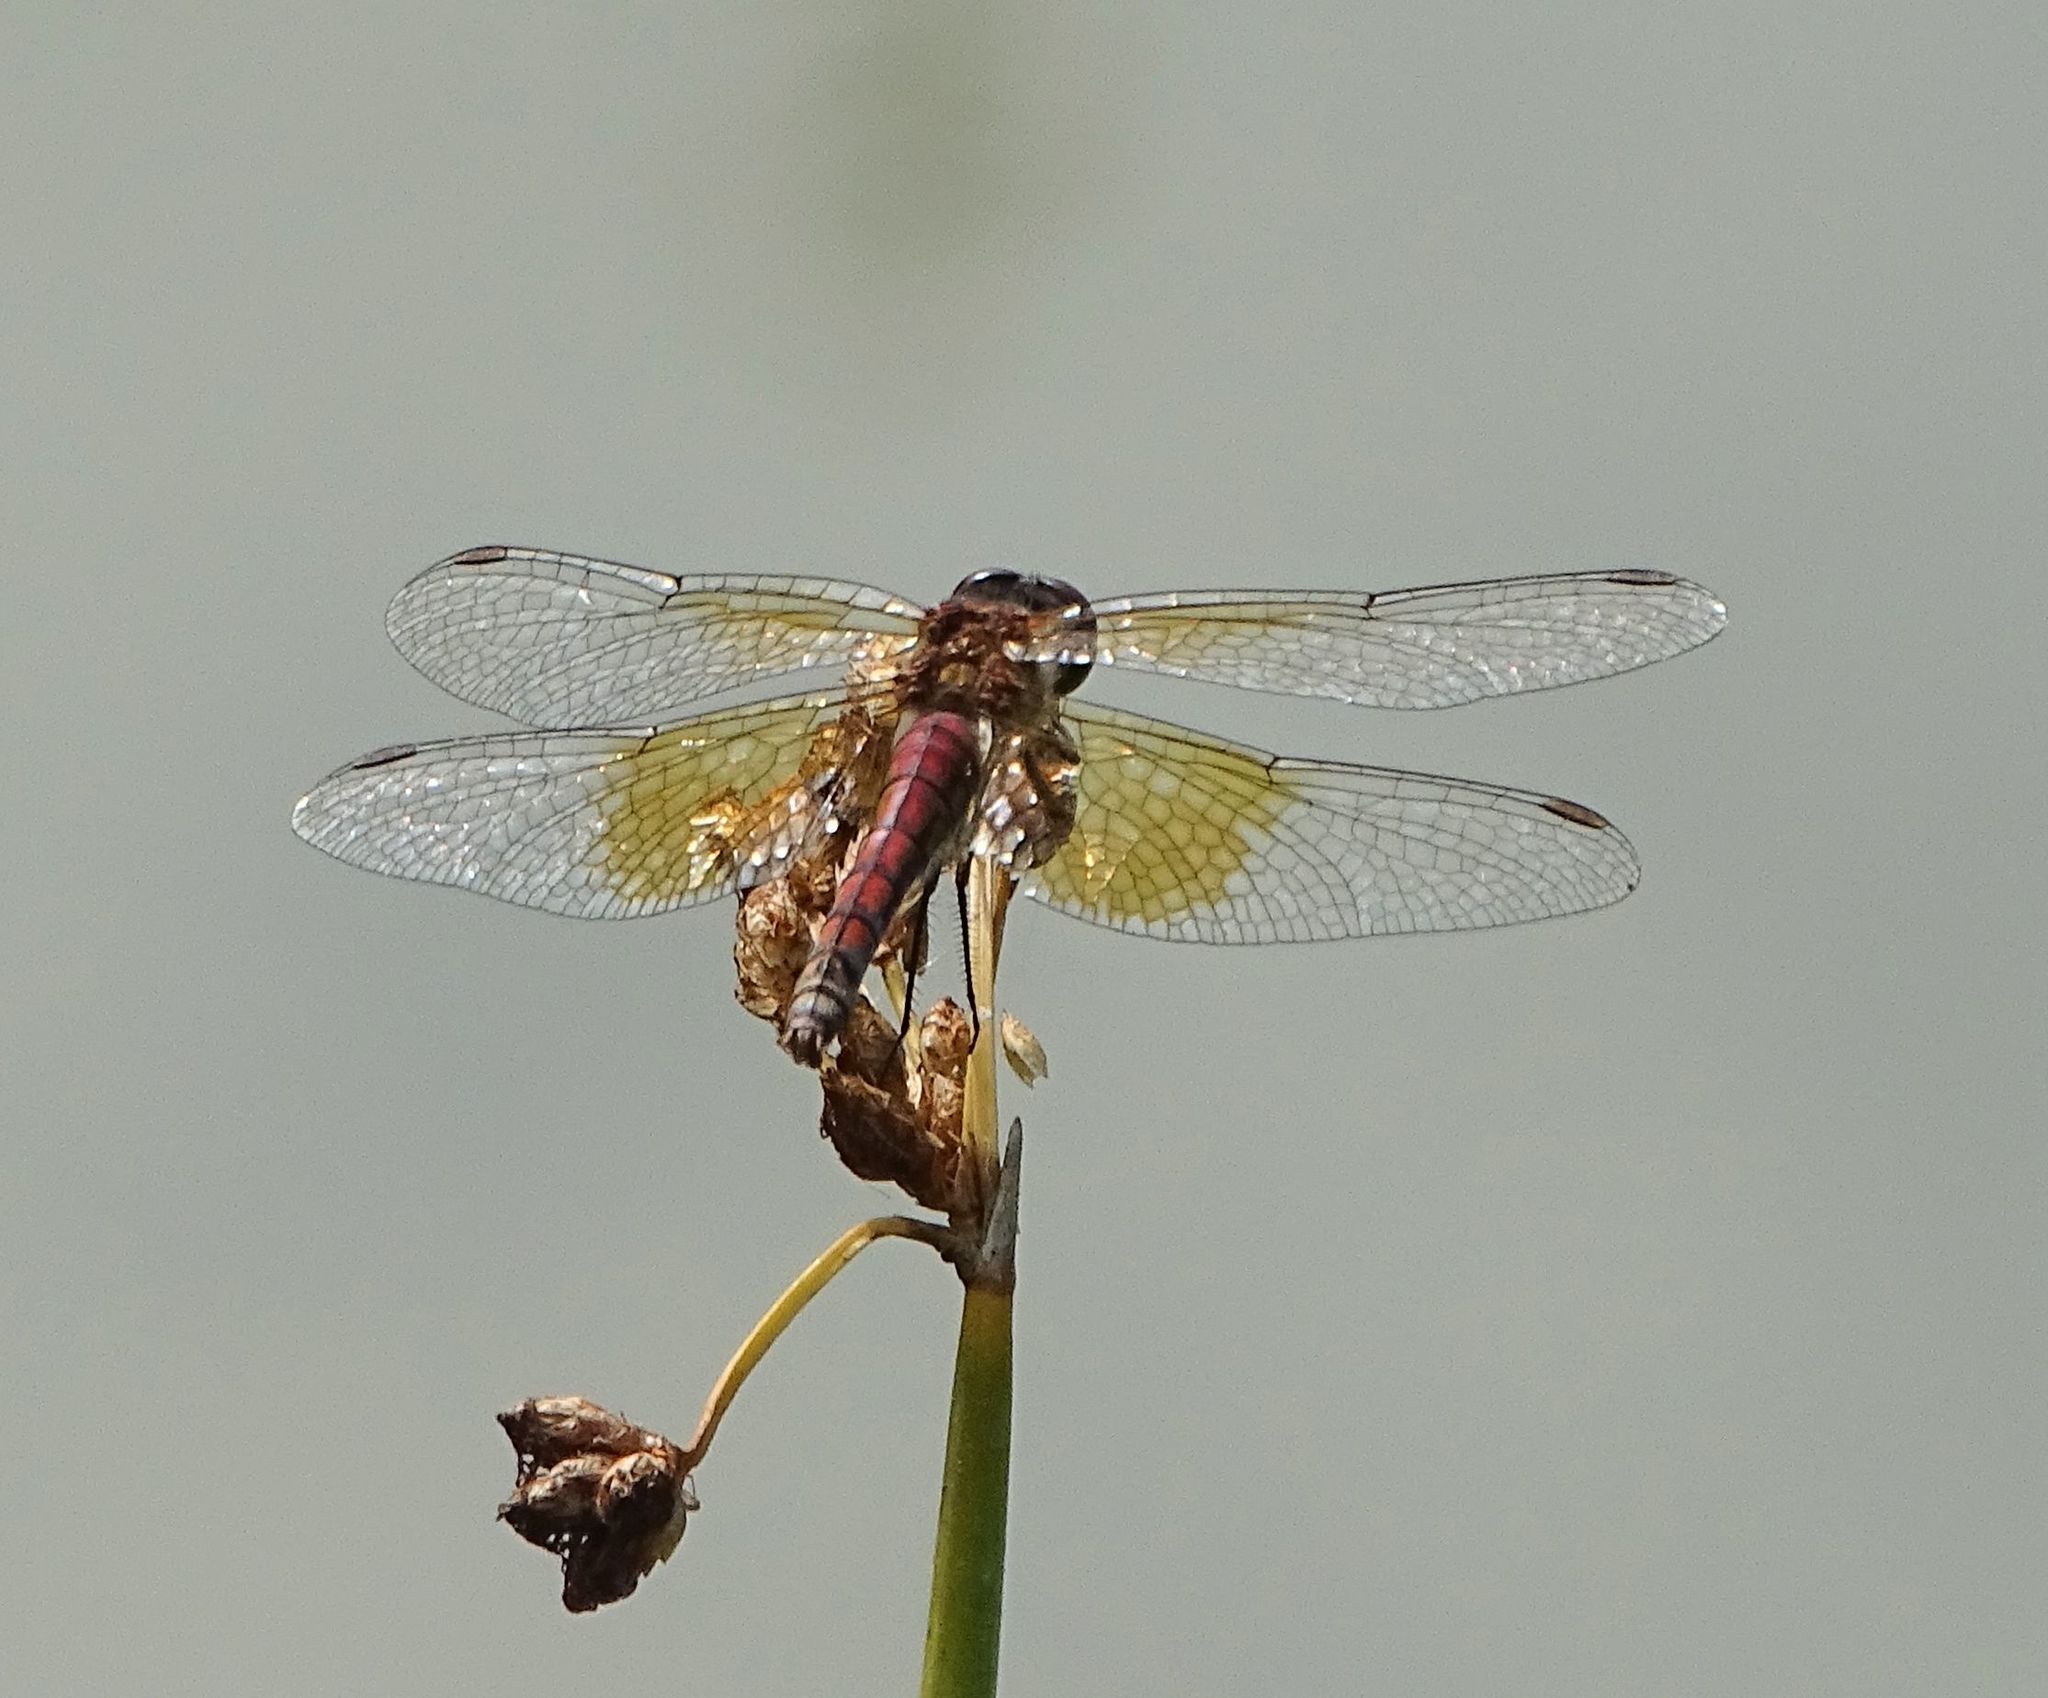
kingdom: Animalia
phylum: Arthropoda
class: Insecta
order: Odonata
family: Libellulidae
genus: Sympetrum
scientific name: Sympetrum semicinctum
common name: Band-winged meadowhawk
